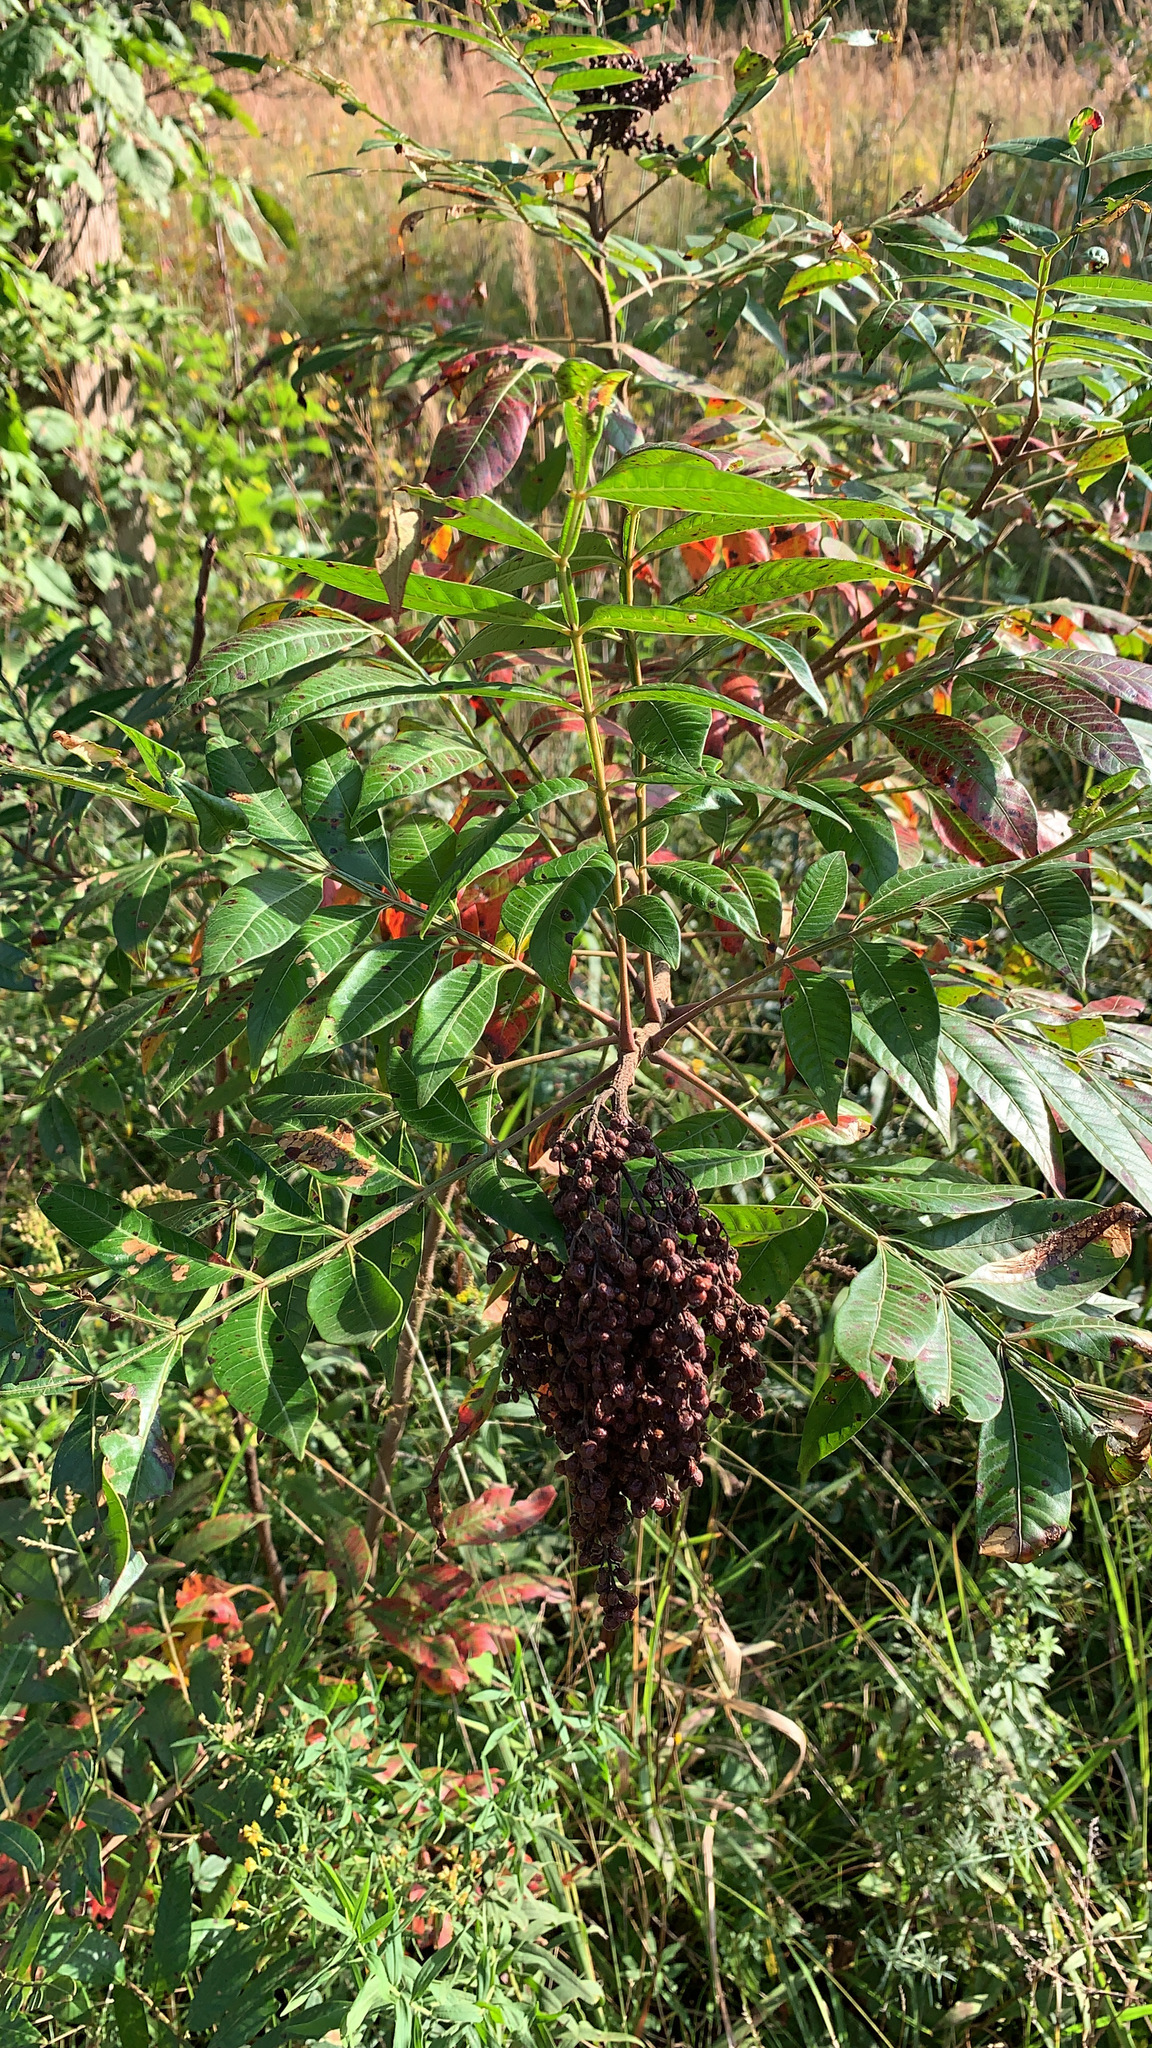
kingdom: Plantae
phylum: Tracheophyta
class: Magnoliopsida
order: Sapindales
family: Anacardiaceae
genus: Rhus
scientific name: Rhus copallina
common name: Shining sumac
